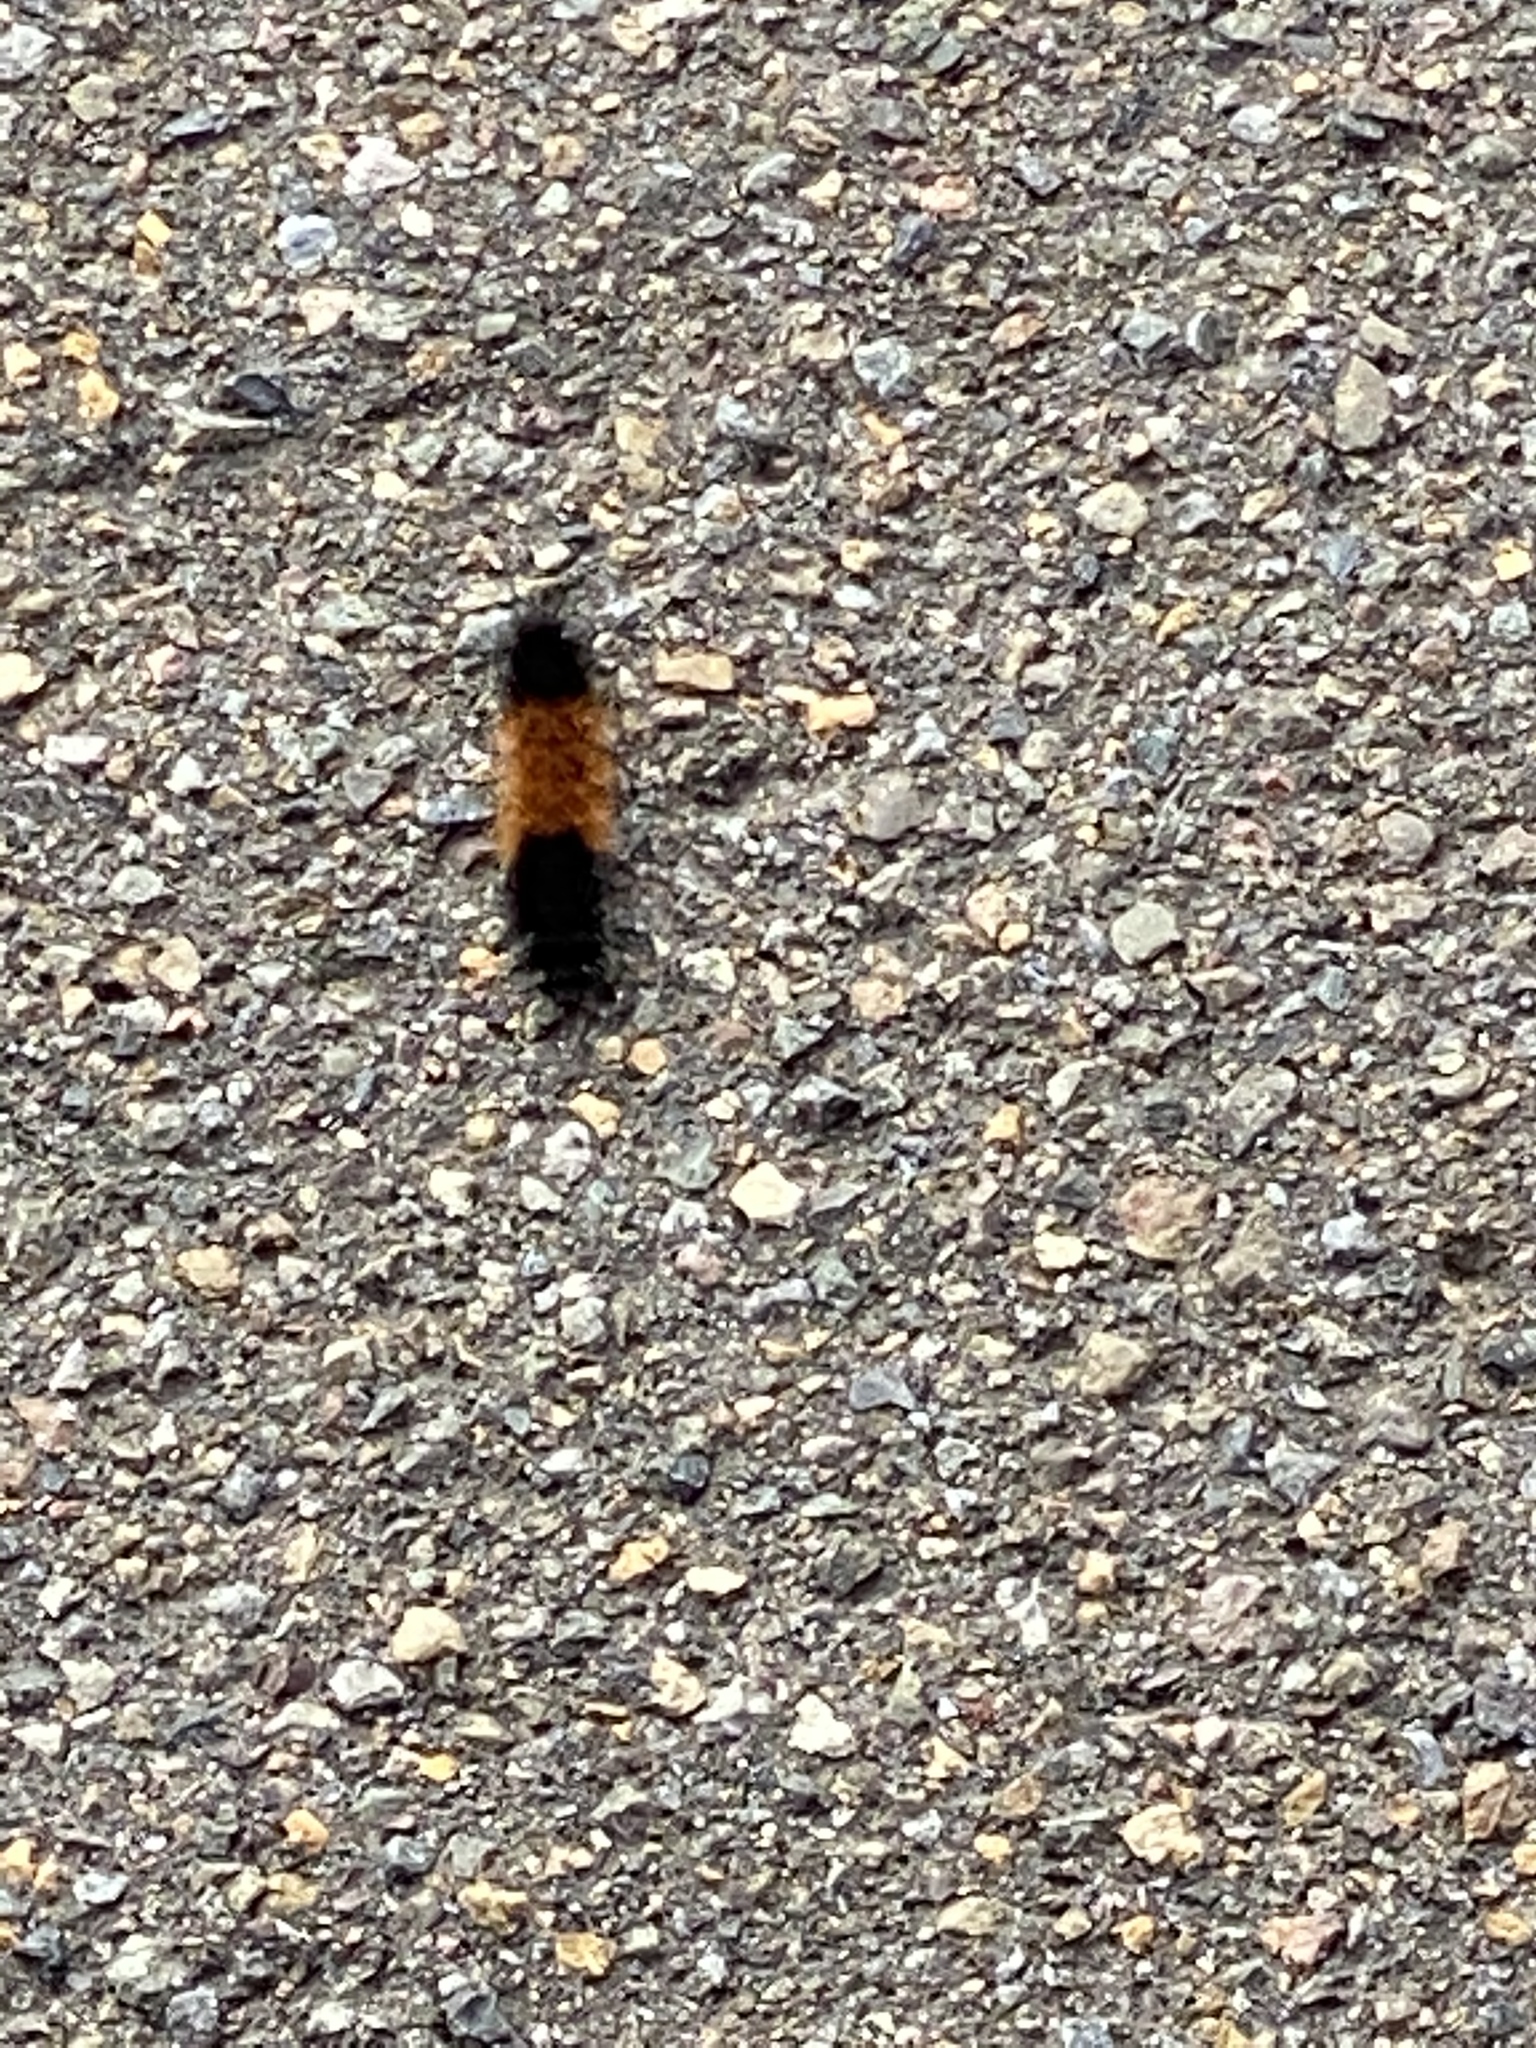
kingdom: Animalia
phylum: Arthropoda
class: Insecta
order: Lepidoptera
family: Erebidae
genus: Pyrrharctia
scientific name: Pyrrharctia isabella
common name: Isabella tiger moth
